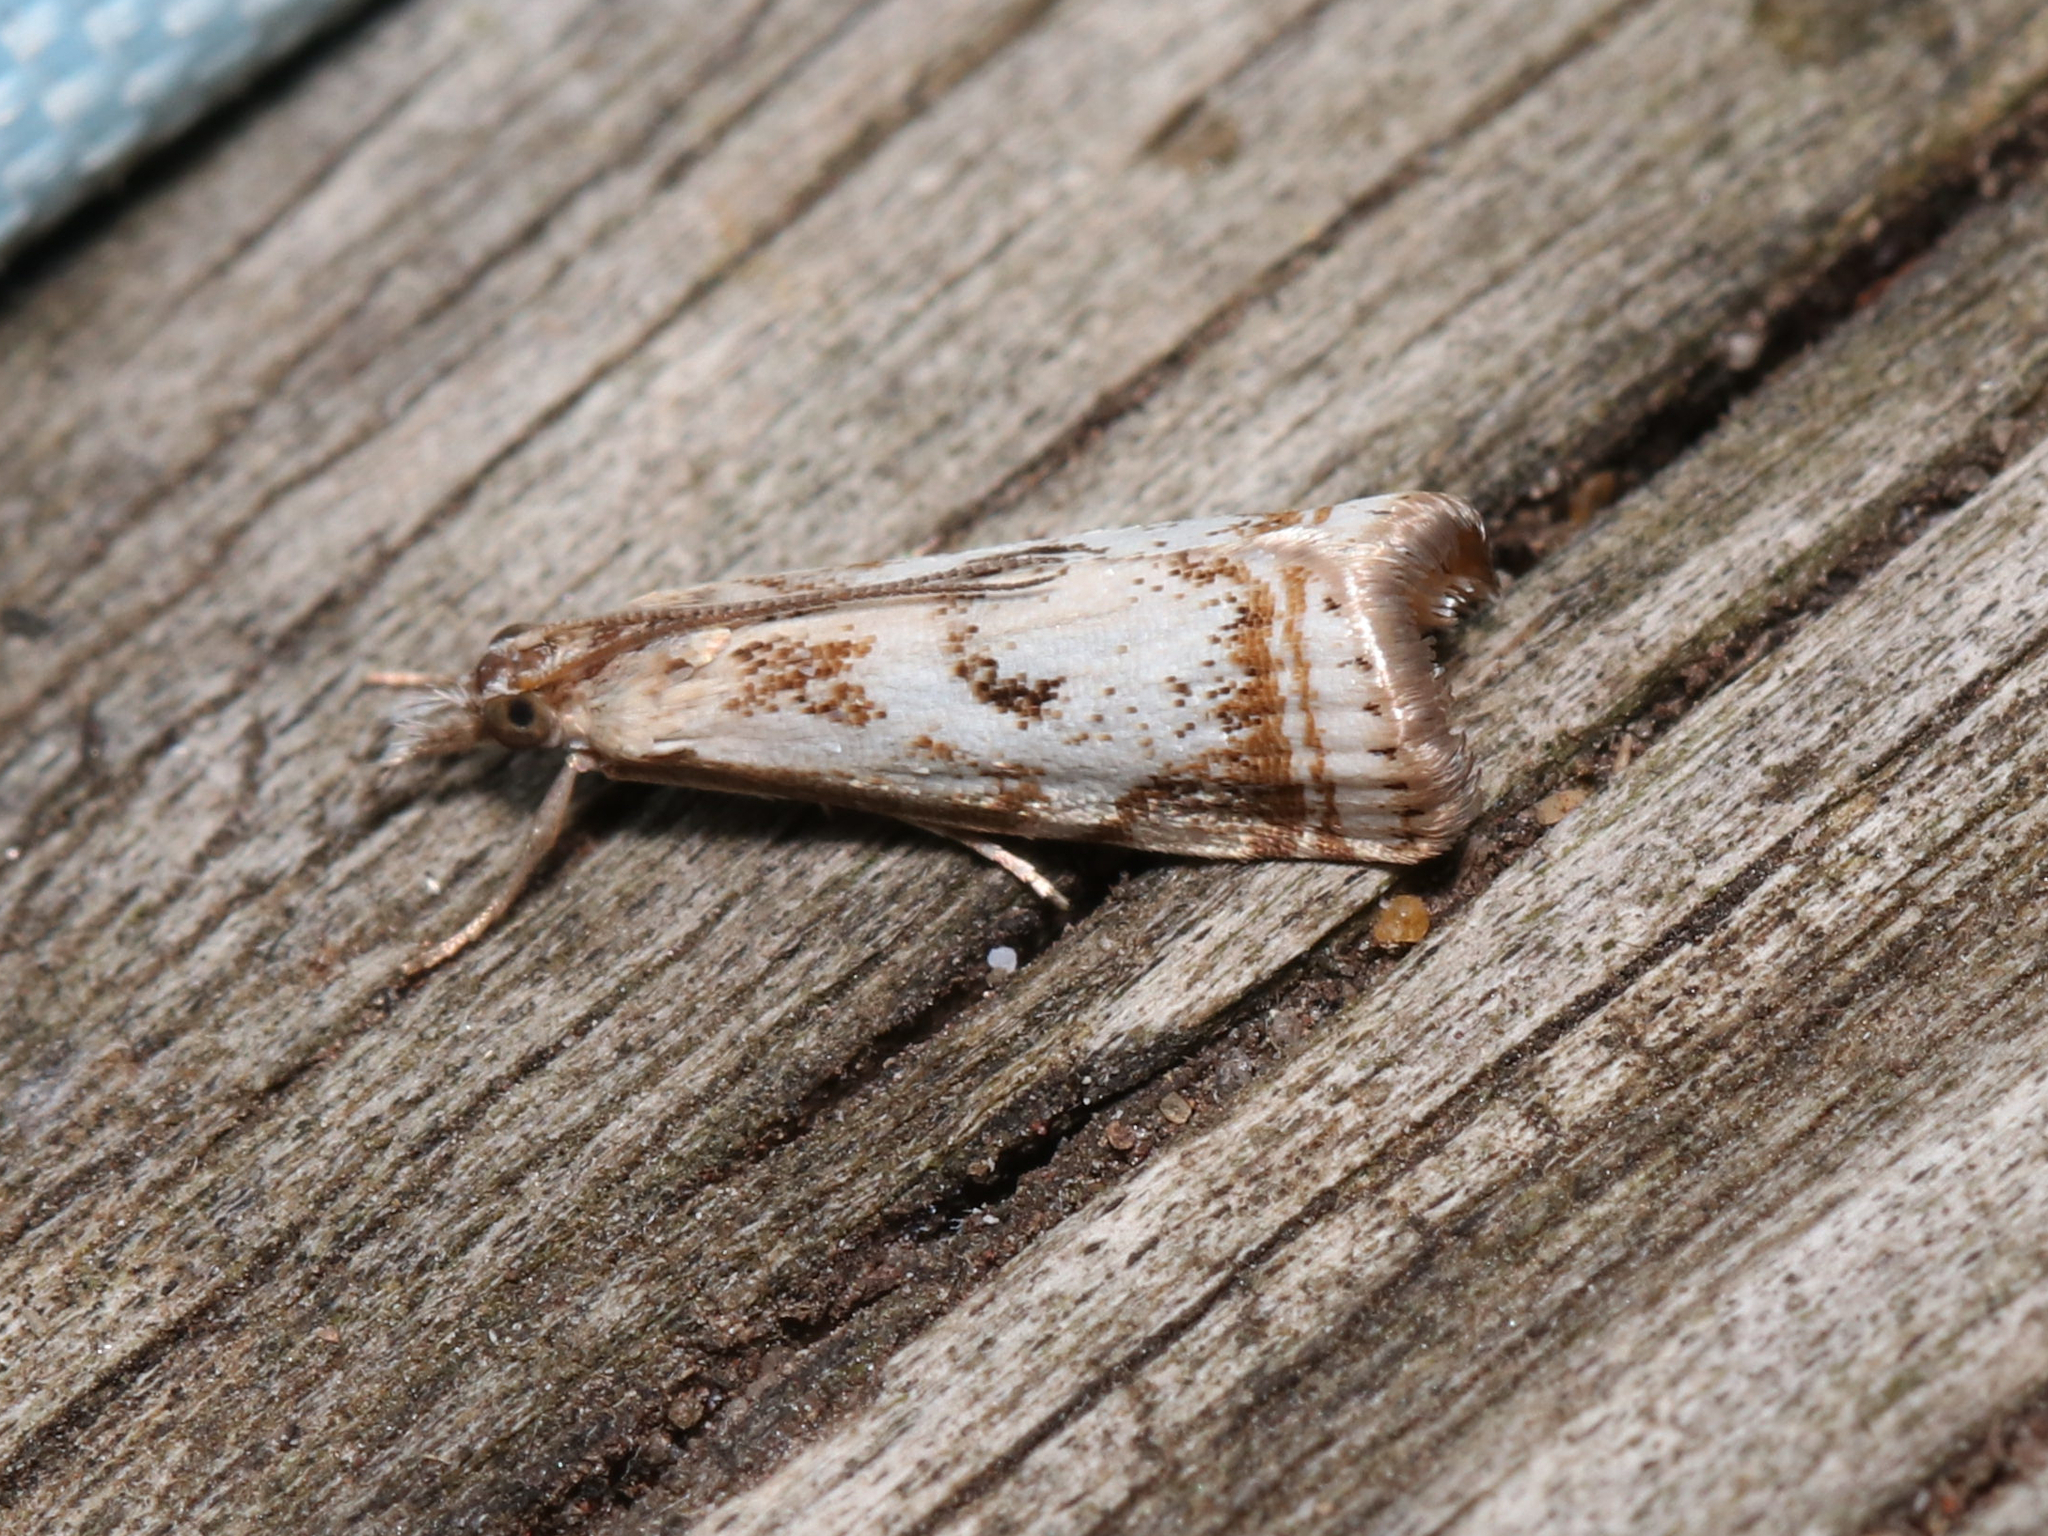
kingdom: Animalia
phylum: Arthropoda
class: Insecta
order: Lepidoptera
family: Crambidae
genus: Microcrambus
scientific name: Microcrambus elegans
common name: Elegant grass-veneer
